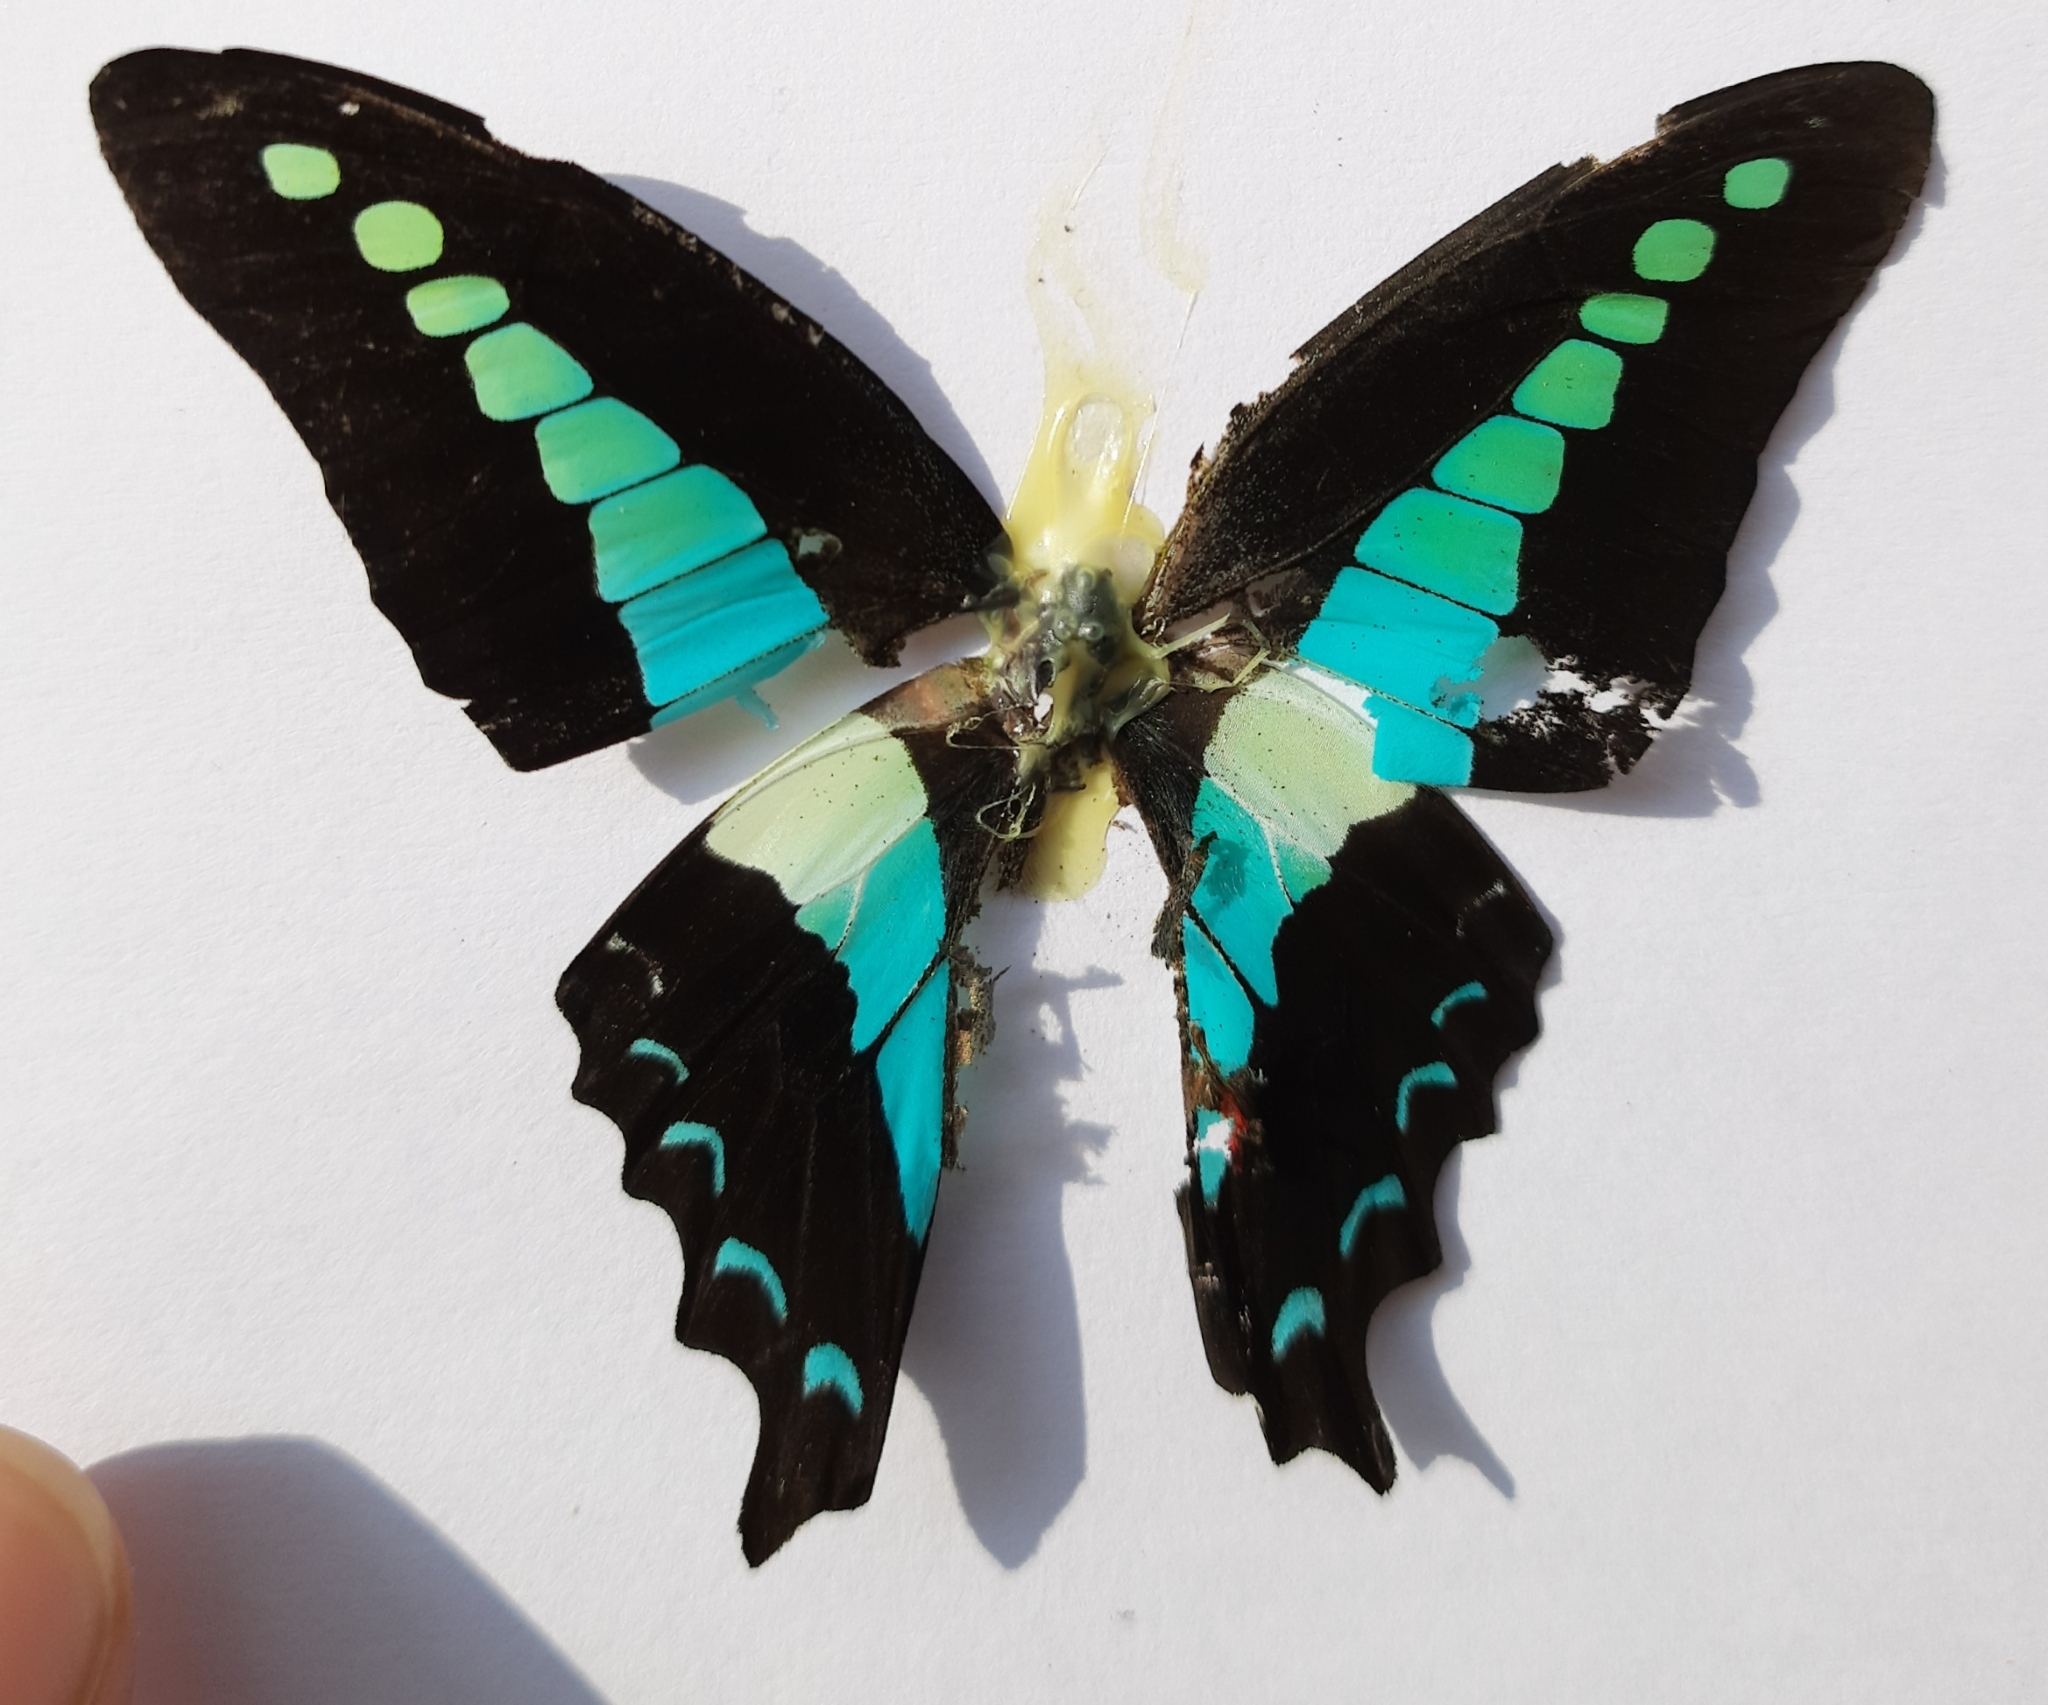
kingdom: Animalia
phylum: Arthropoda
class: Insecta
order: Lepidoptera
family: Papilionidae
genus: Graphium
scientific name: Graphium
